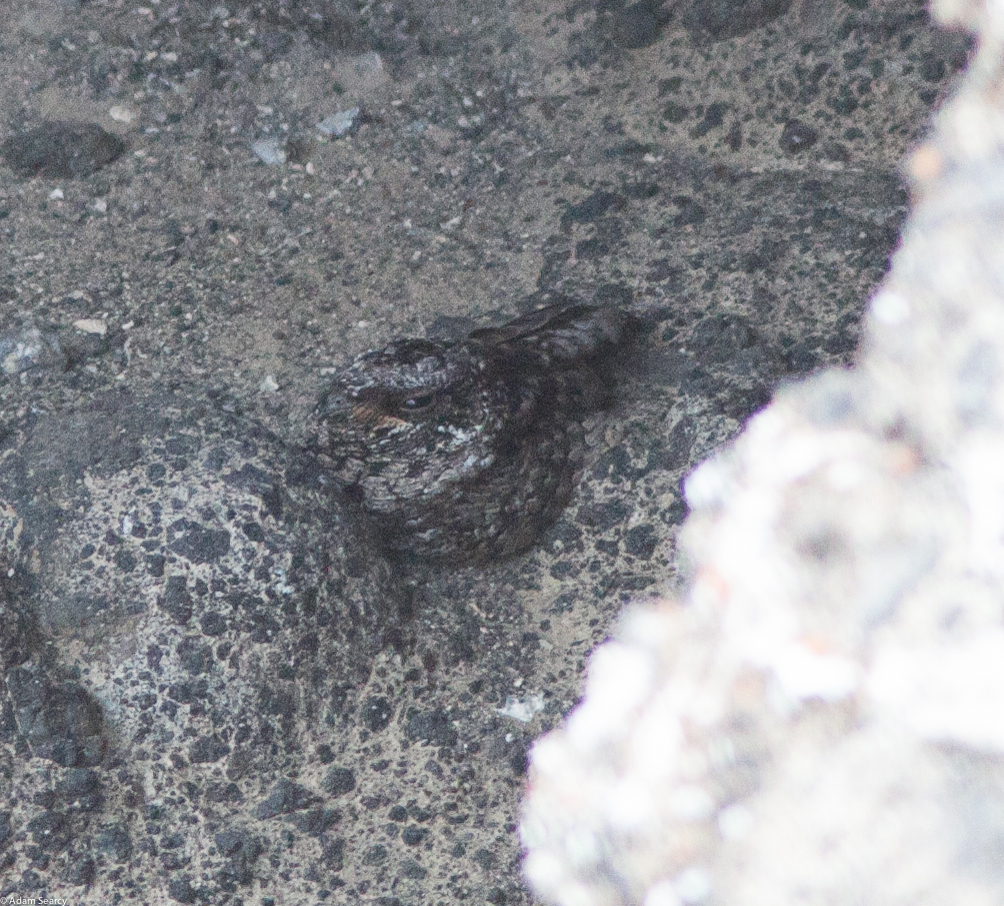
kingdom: Animalia
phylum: Chordata
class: Aves
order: Caprimulgiformes
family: Caprimulgidae
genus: Phalaenoptilus
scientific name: Phalaenoptilus nuttallii
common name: Common poorwill
